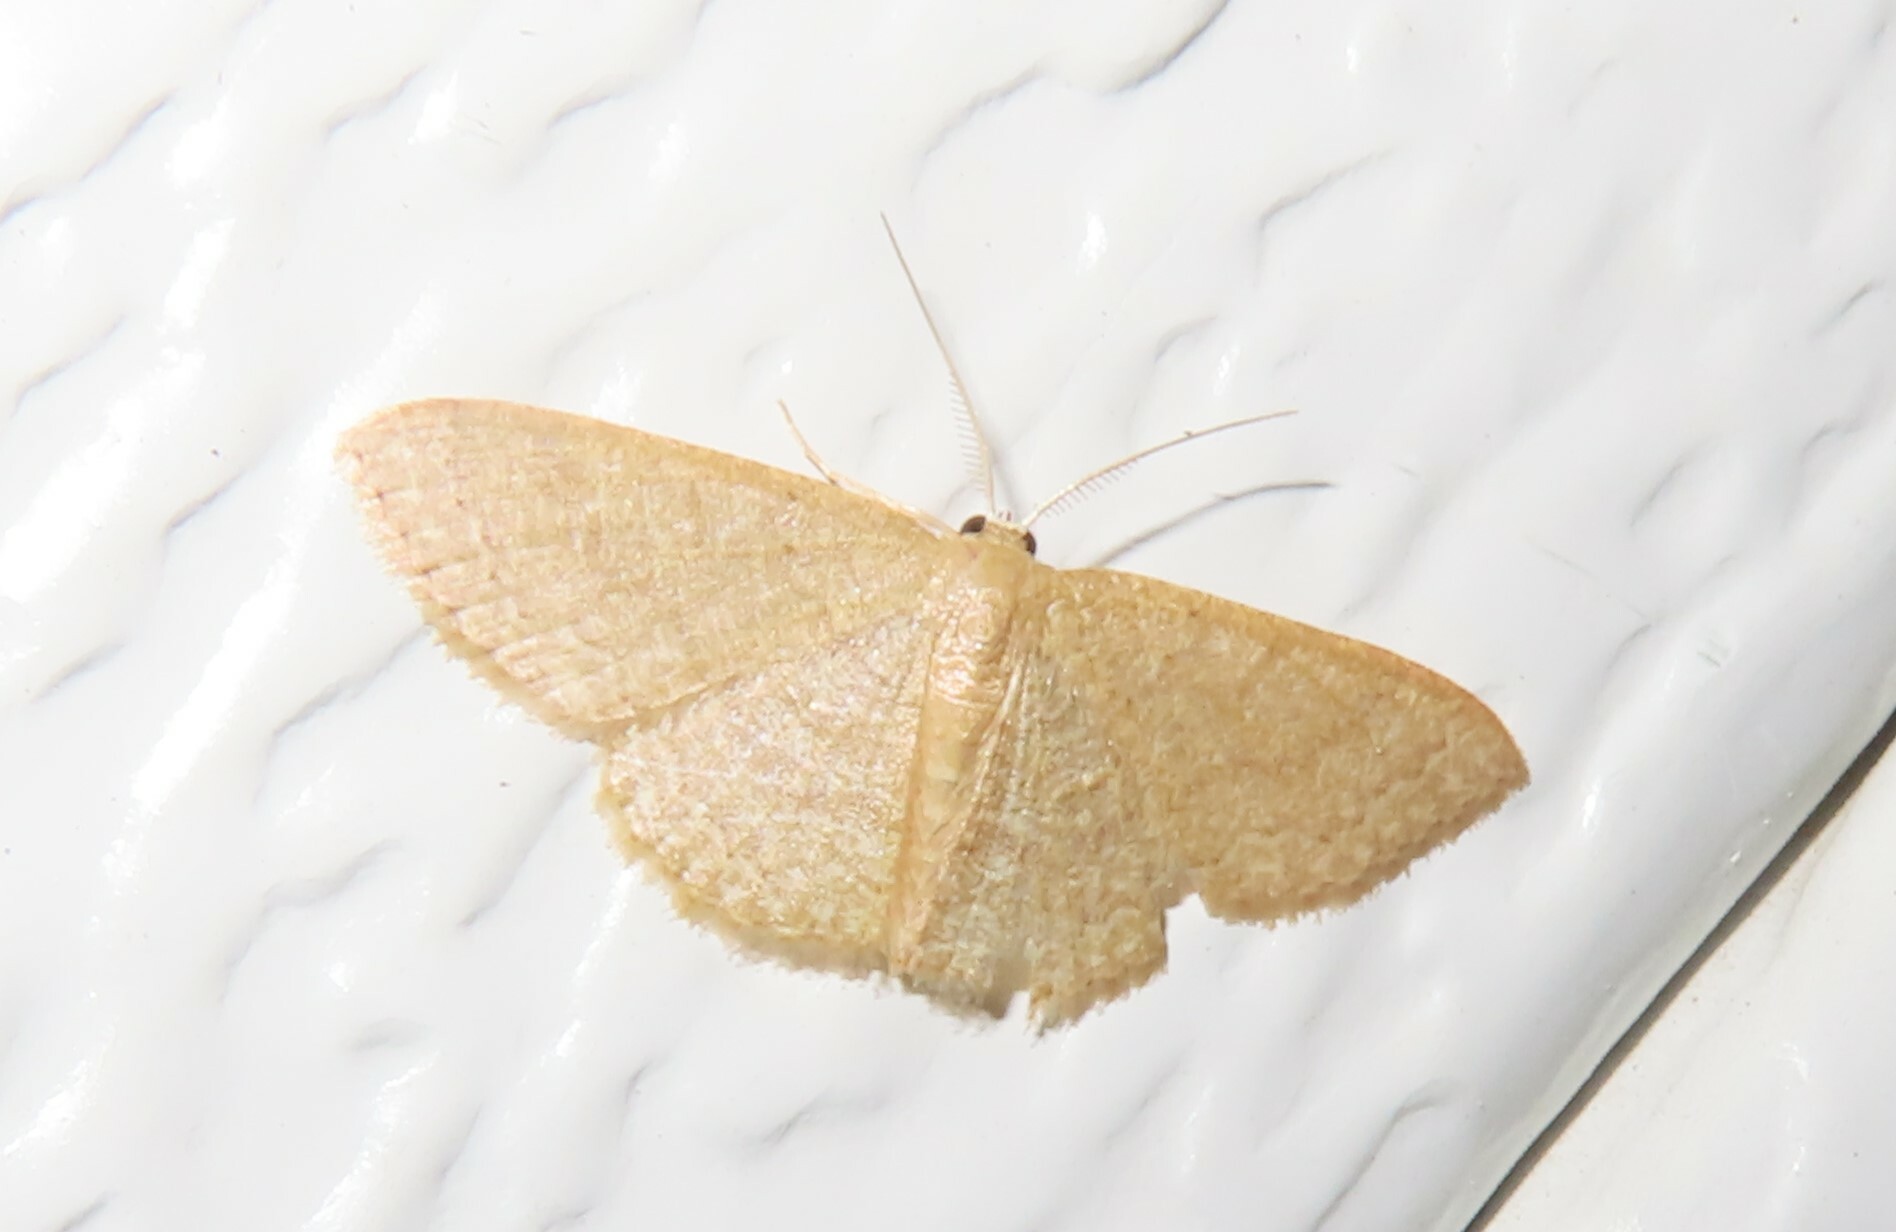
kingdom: Animalia
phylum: Arthropoda
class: Insecta
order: Lepidoptera
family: Geometridae
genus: Pleuroprucha
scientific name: Pleuroprucha insulsaria
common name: Common tan wave
